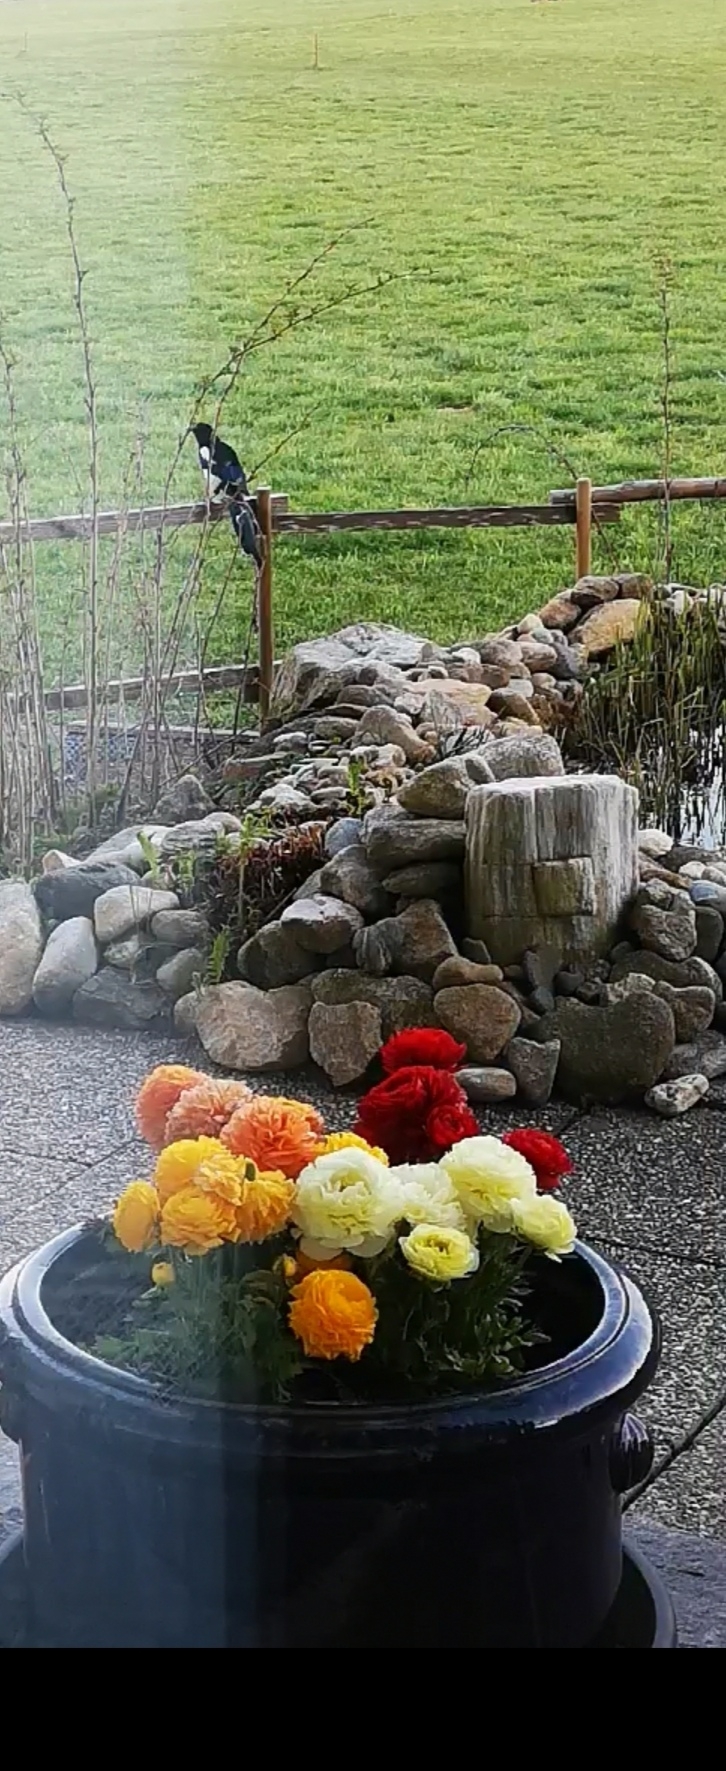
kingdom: Animalia
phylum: Chordata
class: Aves
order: Passeriformes
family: Corvidae
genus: Pica
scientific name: Pica pica
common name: Eurasian magpie
